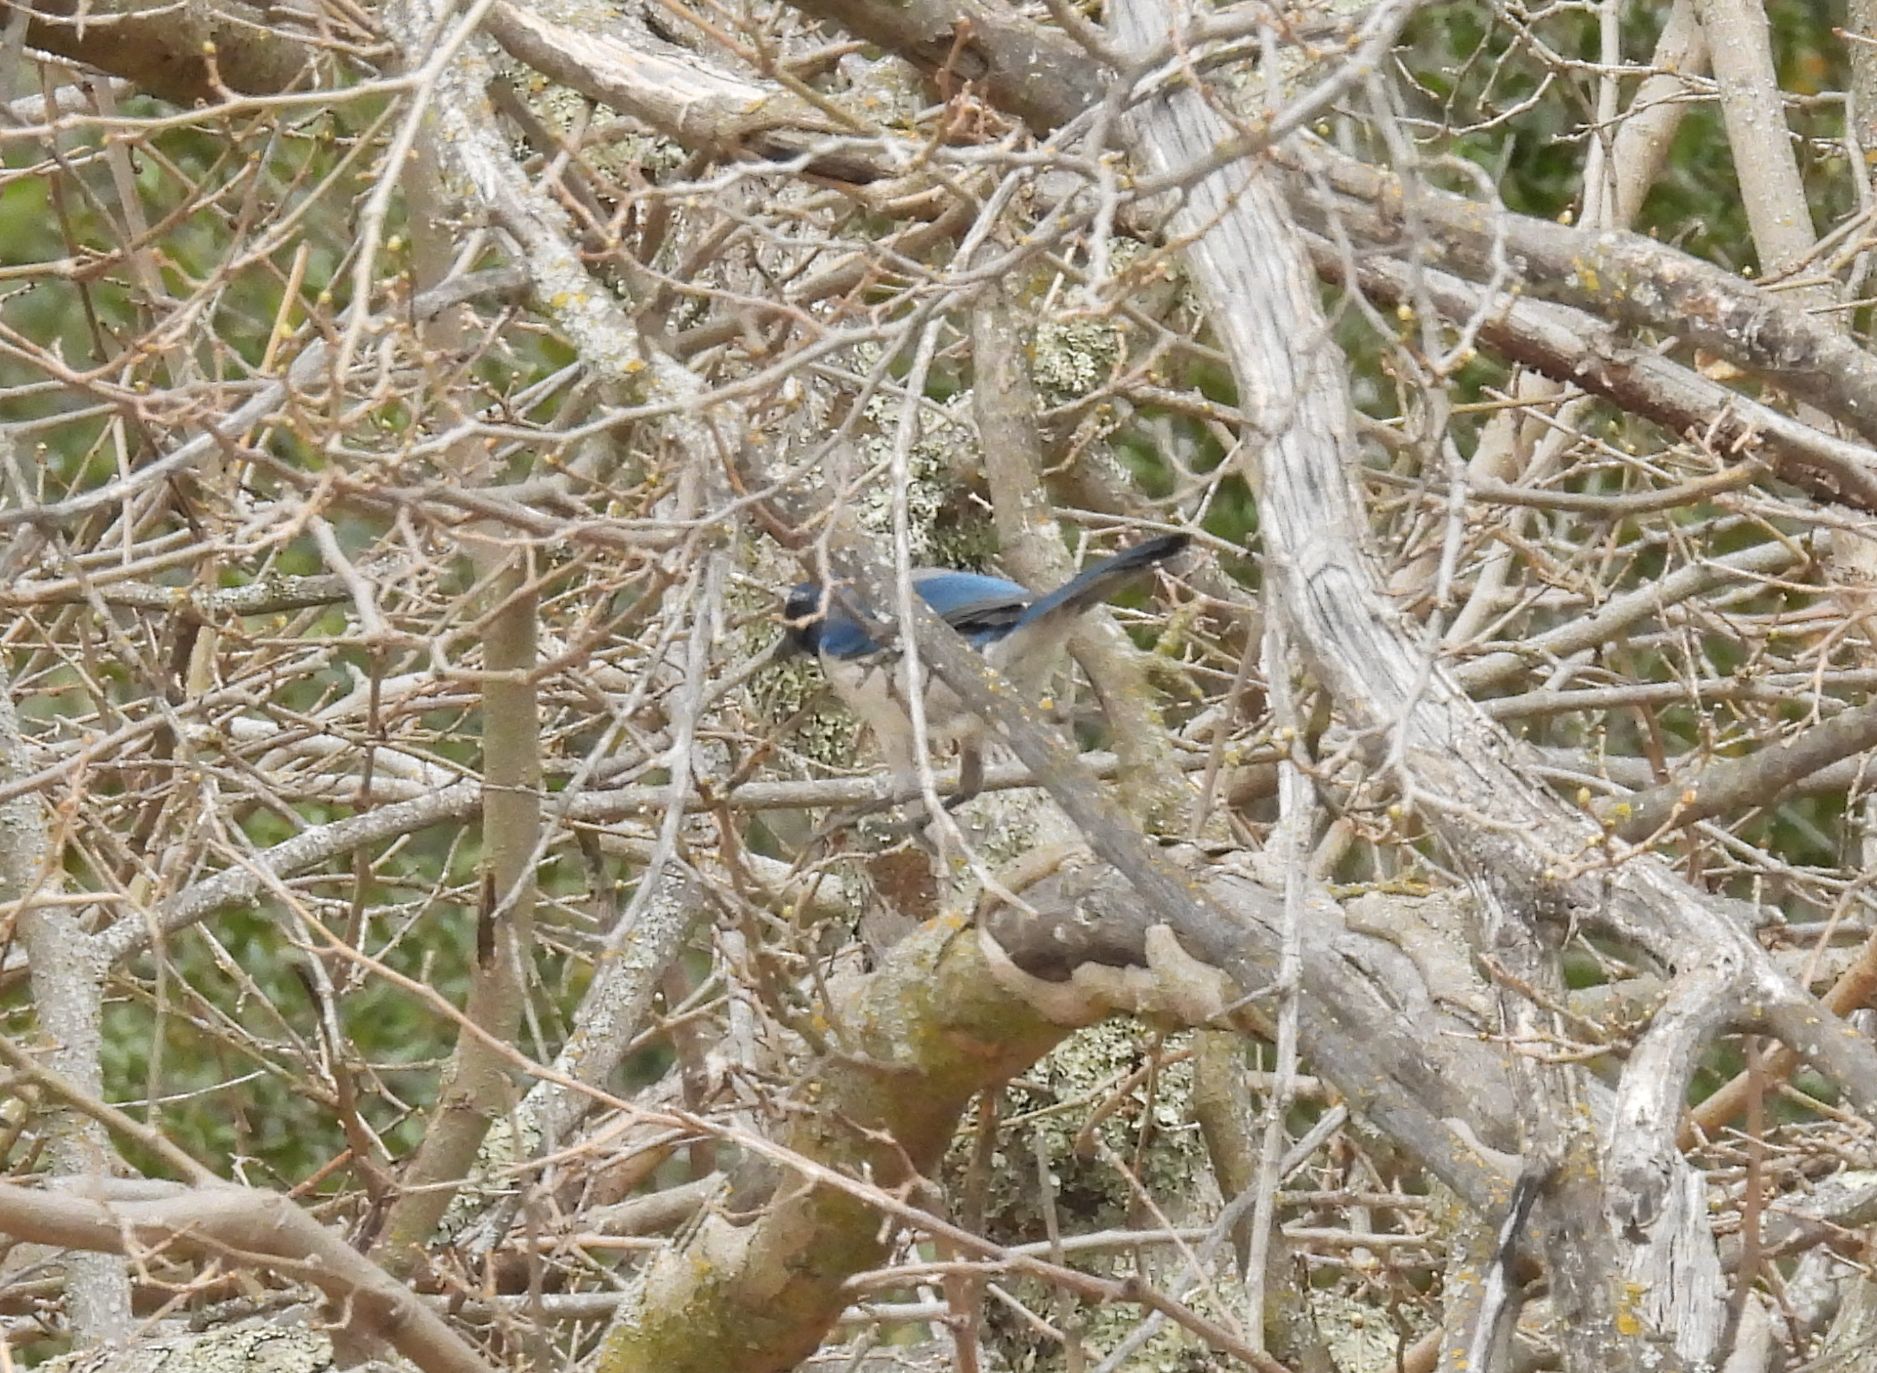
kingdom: Animalia
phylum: Chordata
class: Aves
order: Passeriformes
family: Corvidae
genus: Aphelocoma
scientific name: Aphelocoma californica
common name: California scrub-jay
